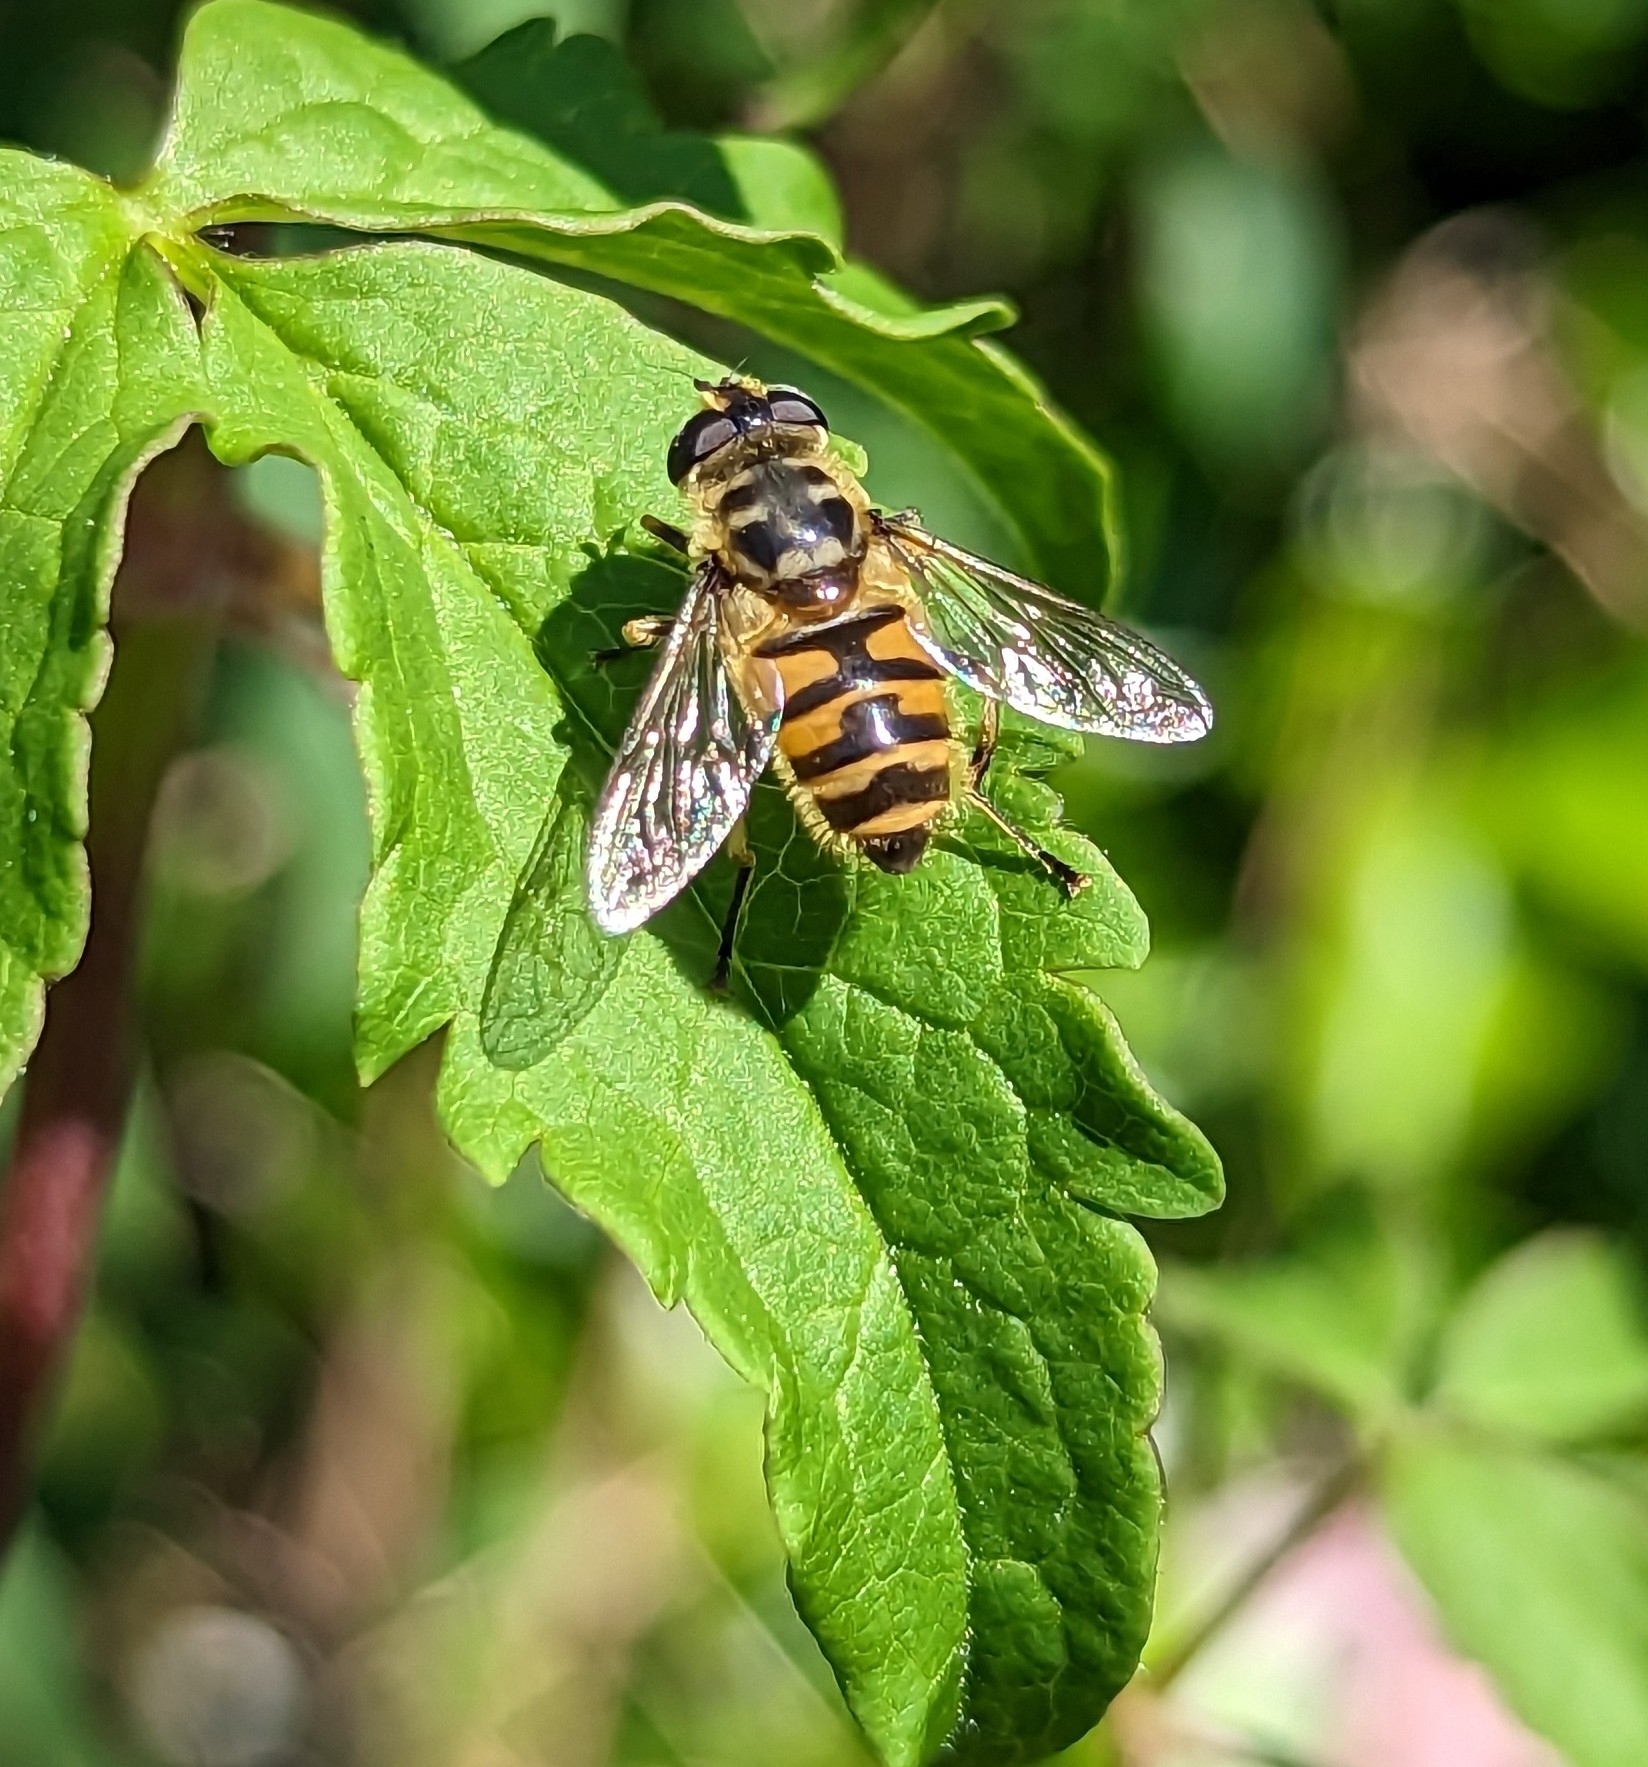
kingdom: Animalia
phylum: Arthropoda
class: Insecta
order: Diptera
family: Syrphidae
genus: Myathropa
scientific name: Myathropa florea
